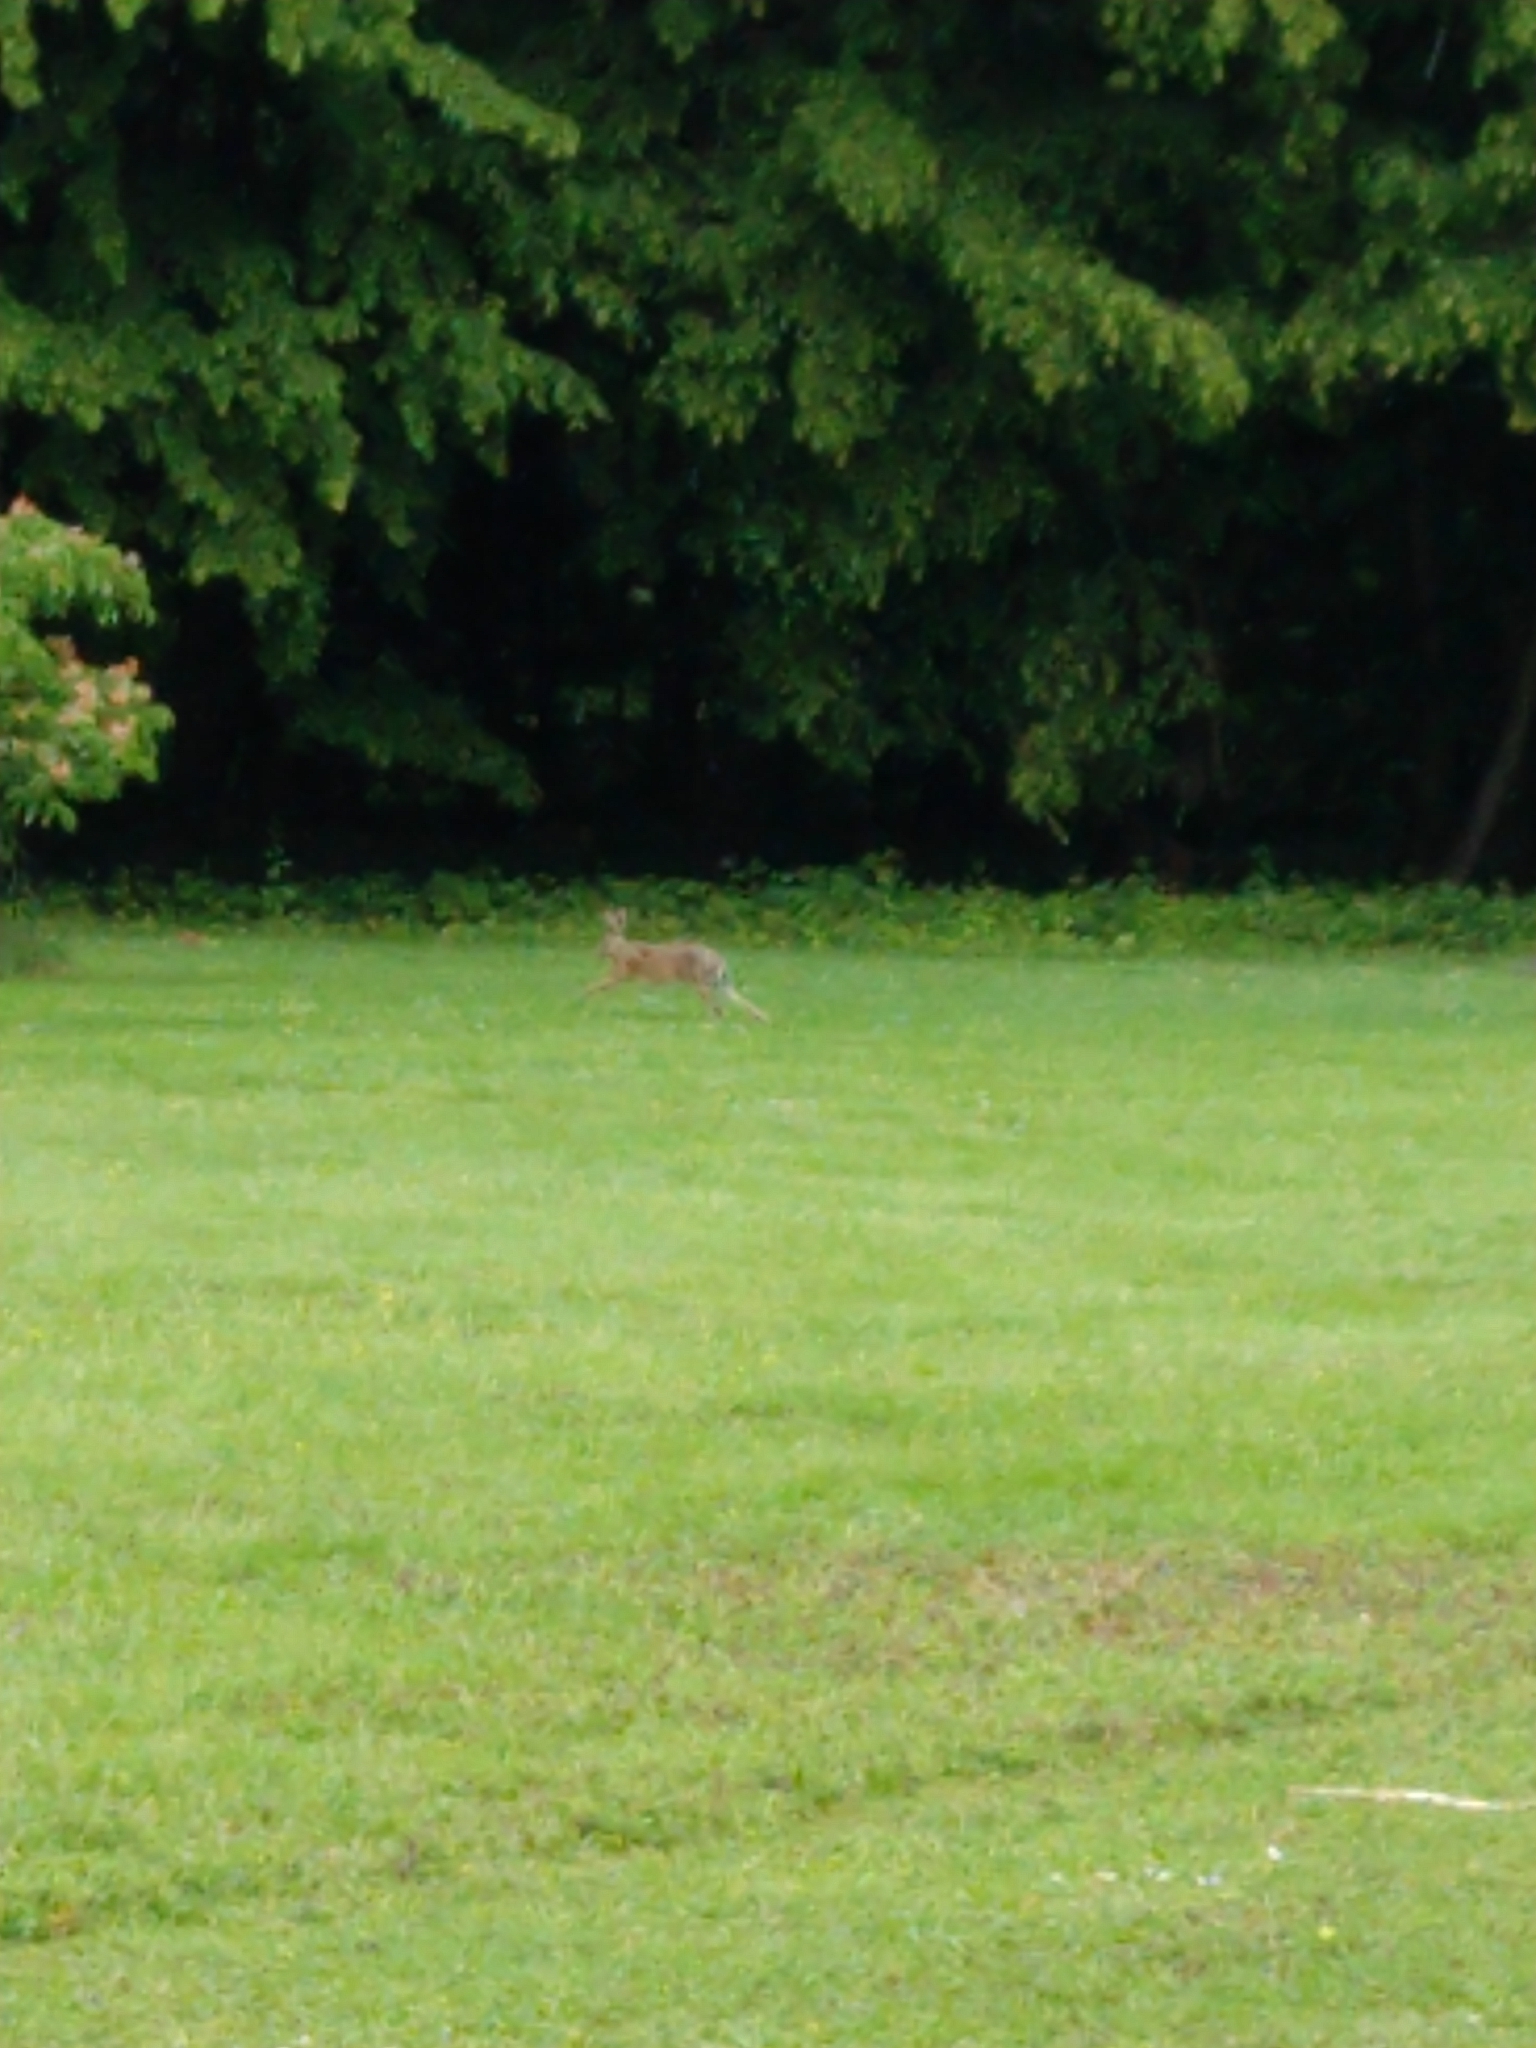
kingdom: Animalia
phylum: Chordata
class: Mammalia
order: Lagomorpha
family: Leporidae
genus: Lepus
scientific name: Lepus europaeus
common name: European hare
